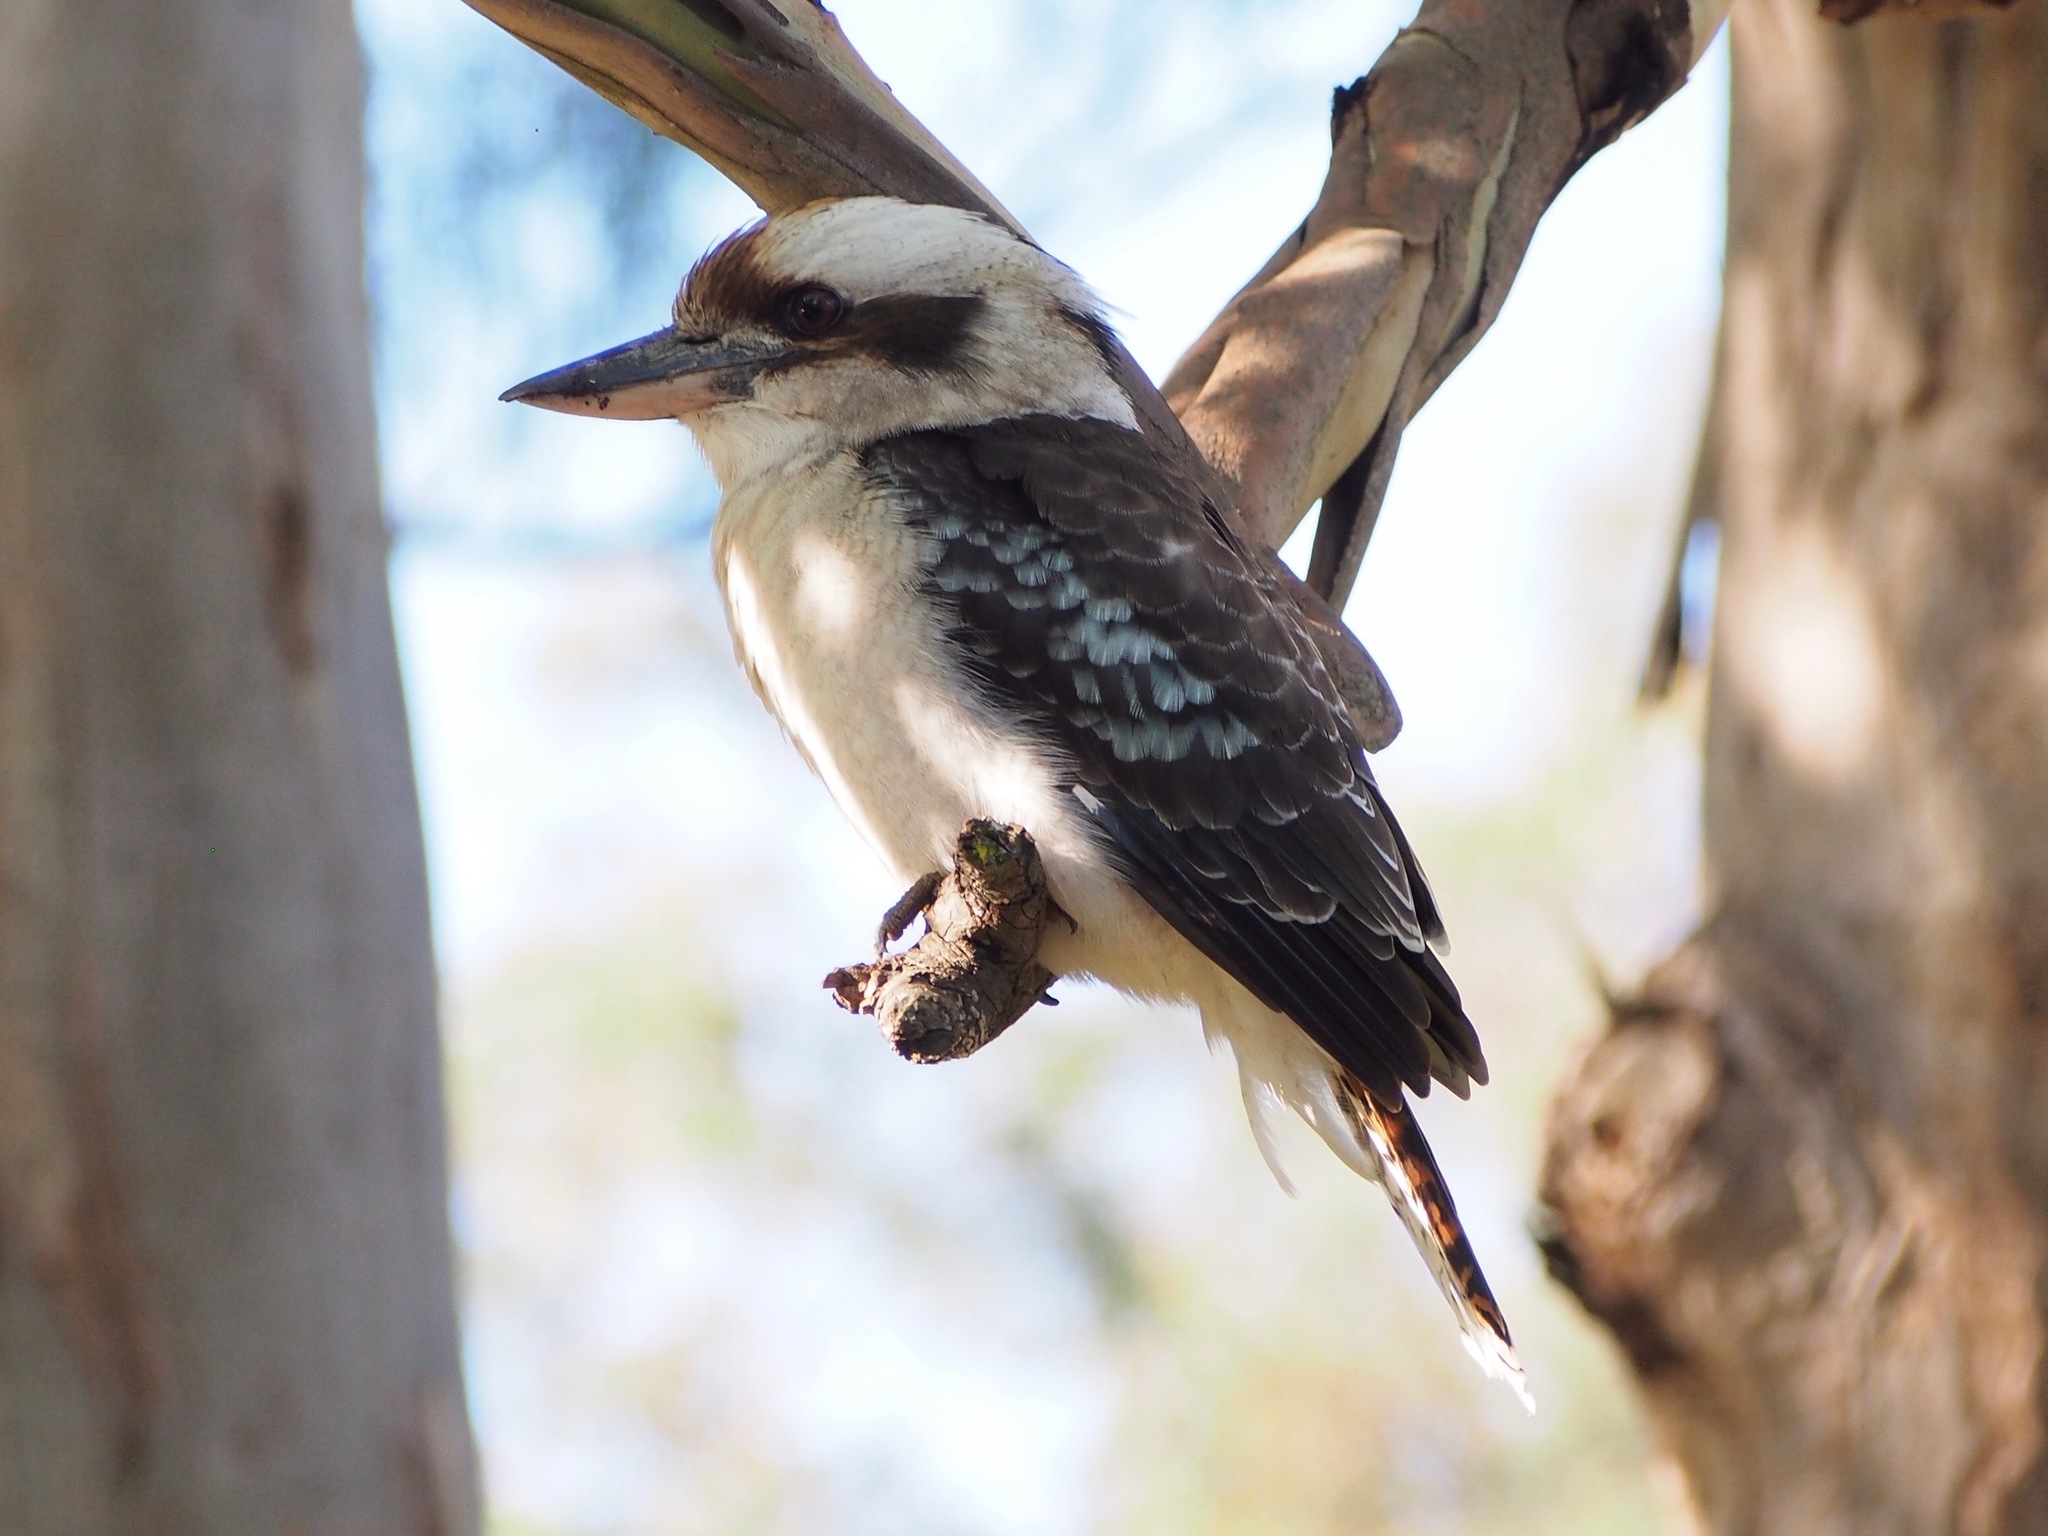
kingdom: Animalia
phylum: Chordata
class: Aves
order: Coraciiformes
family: Alcedinidae
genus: Dacelo
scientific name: Dacelo novaeguineae
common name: Laughing kookaburra
